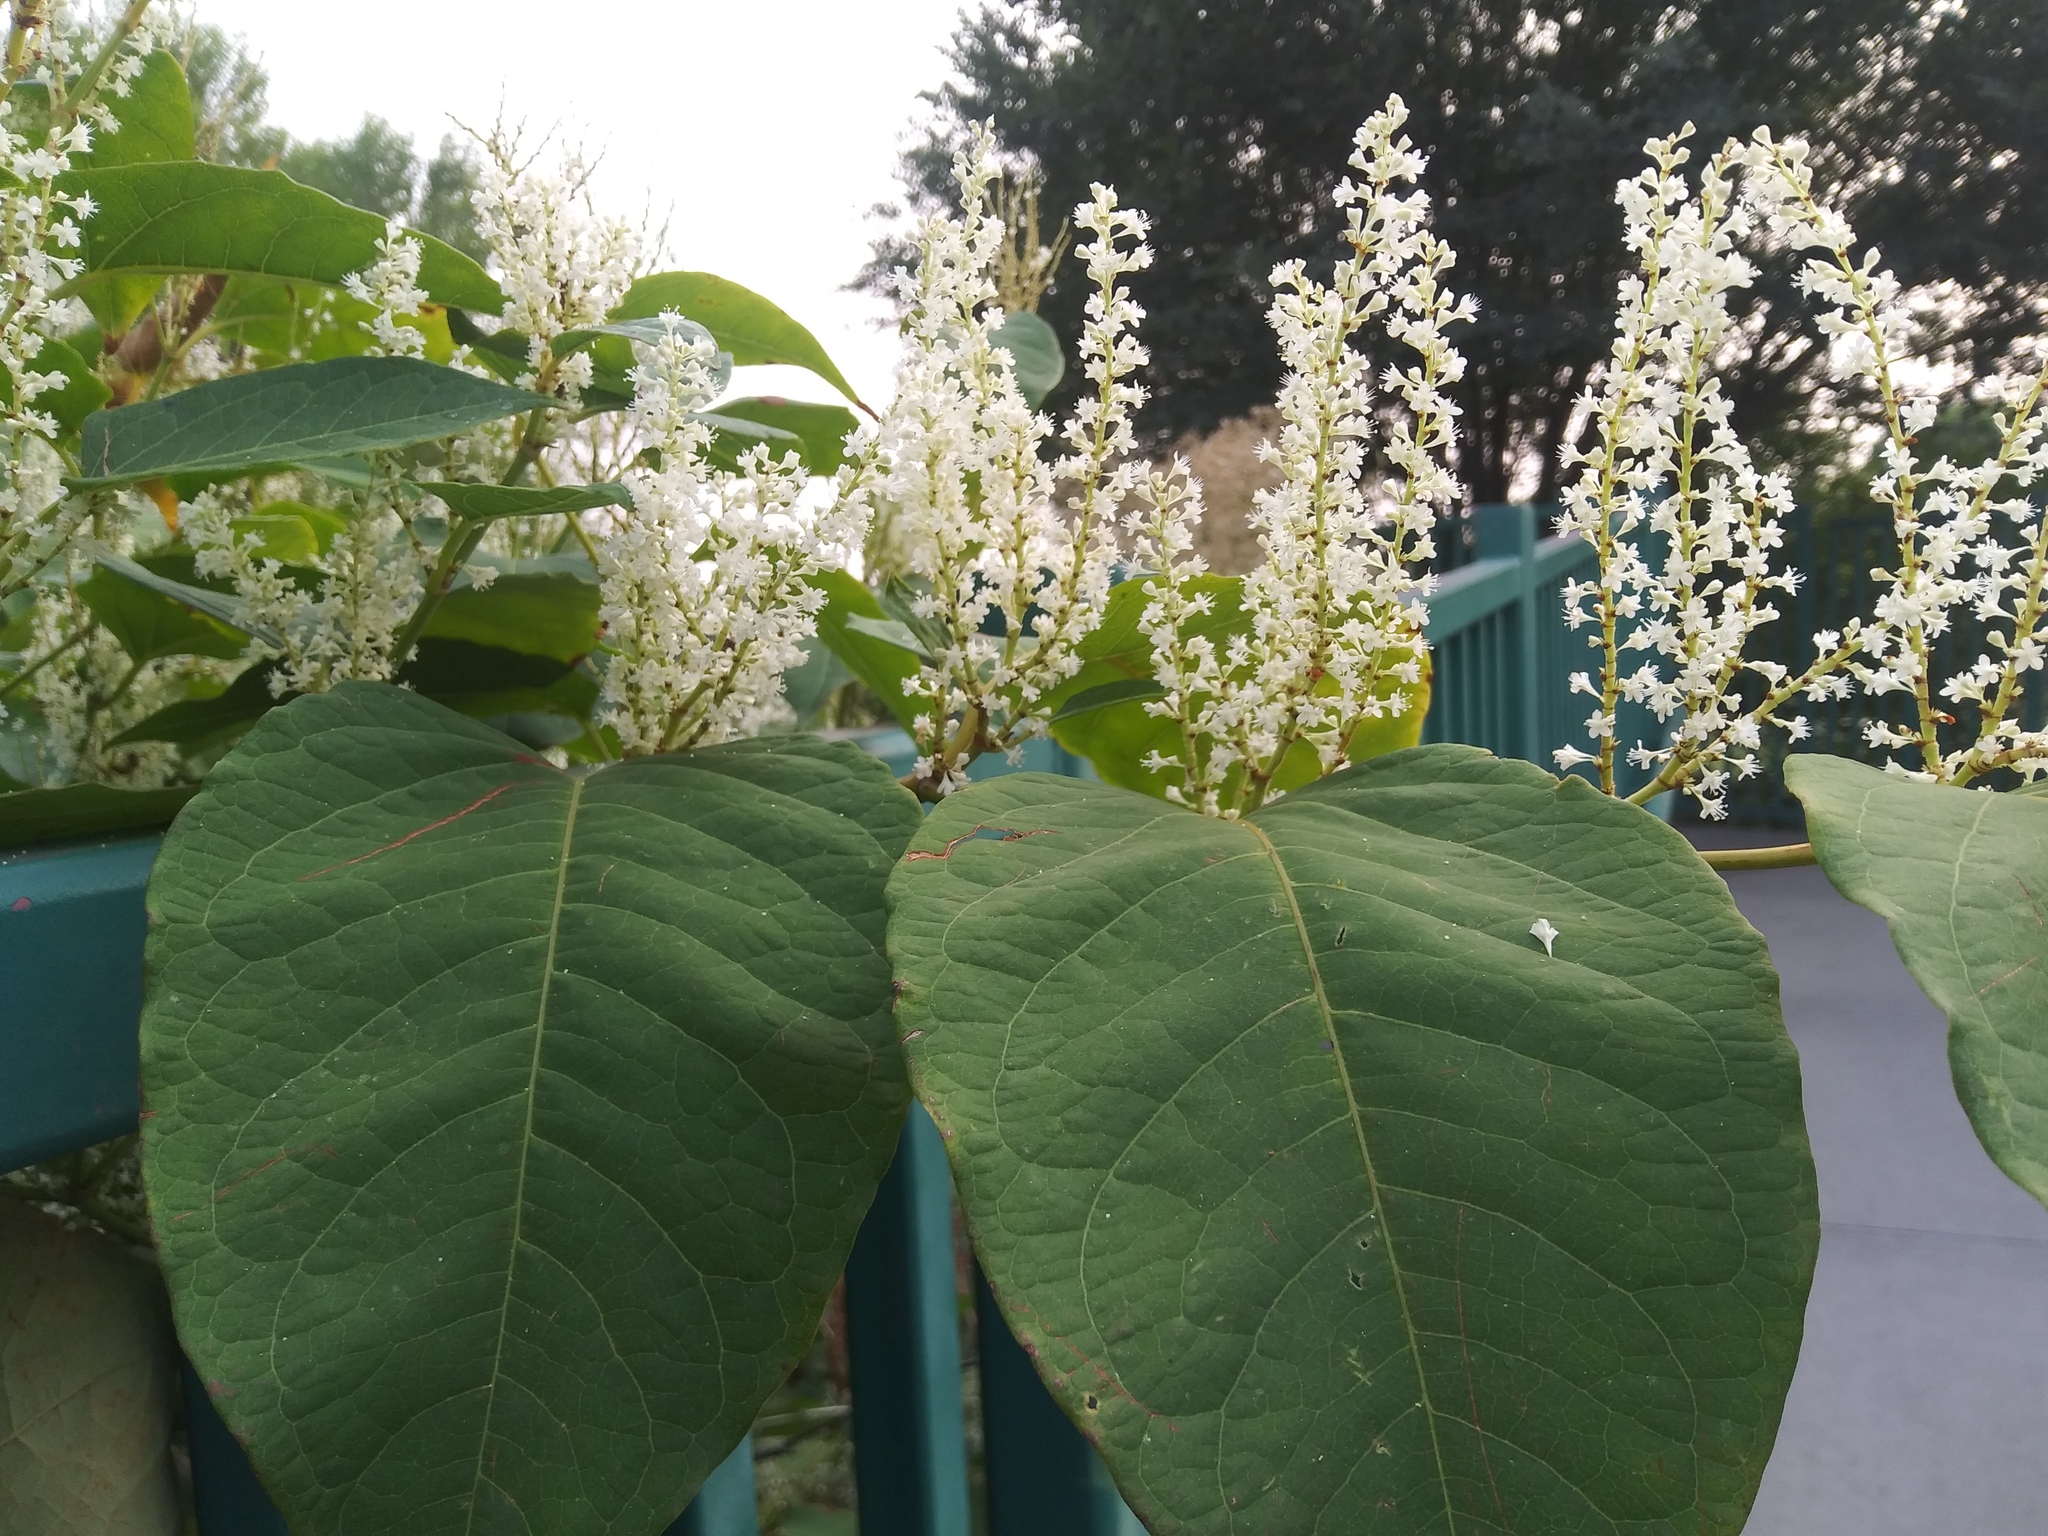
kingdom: Plantae
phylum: Tracheophyta
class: Magnoliopsida
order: Caryophyllales
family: Polygonaceae
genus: Reynoutria
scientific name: Reynoutria japonica
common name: Japanese knotweed
